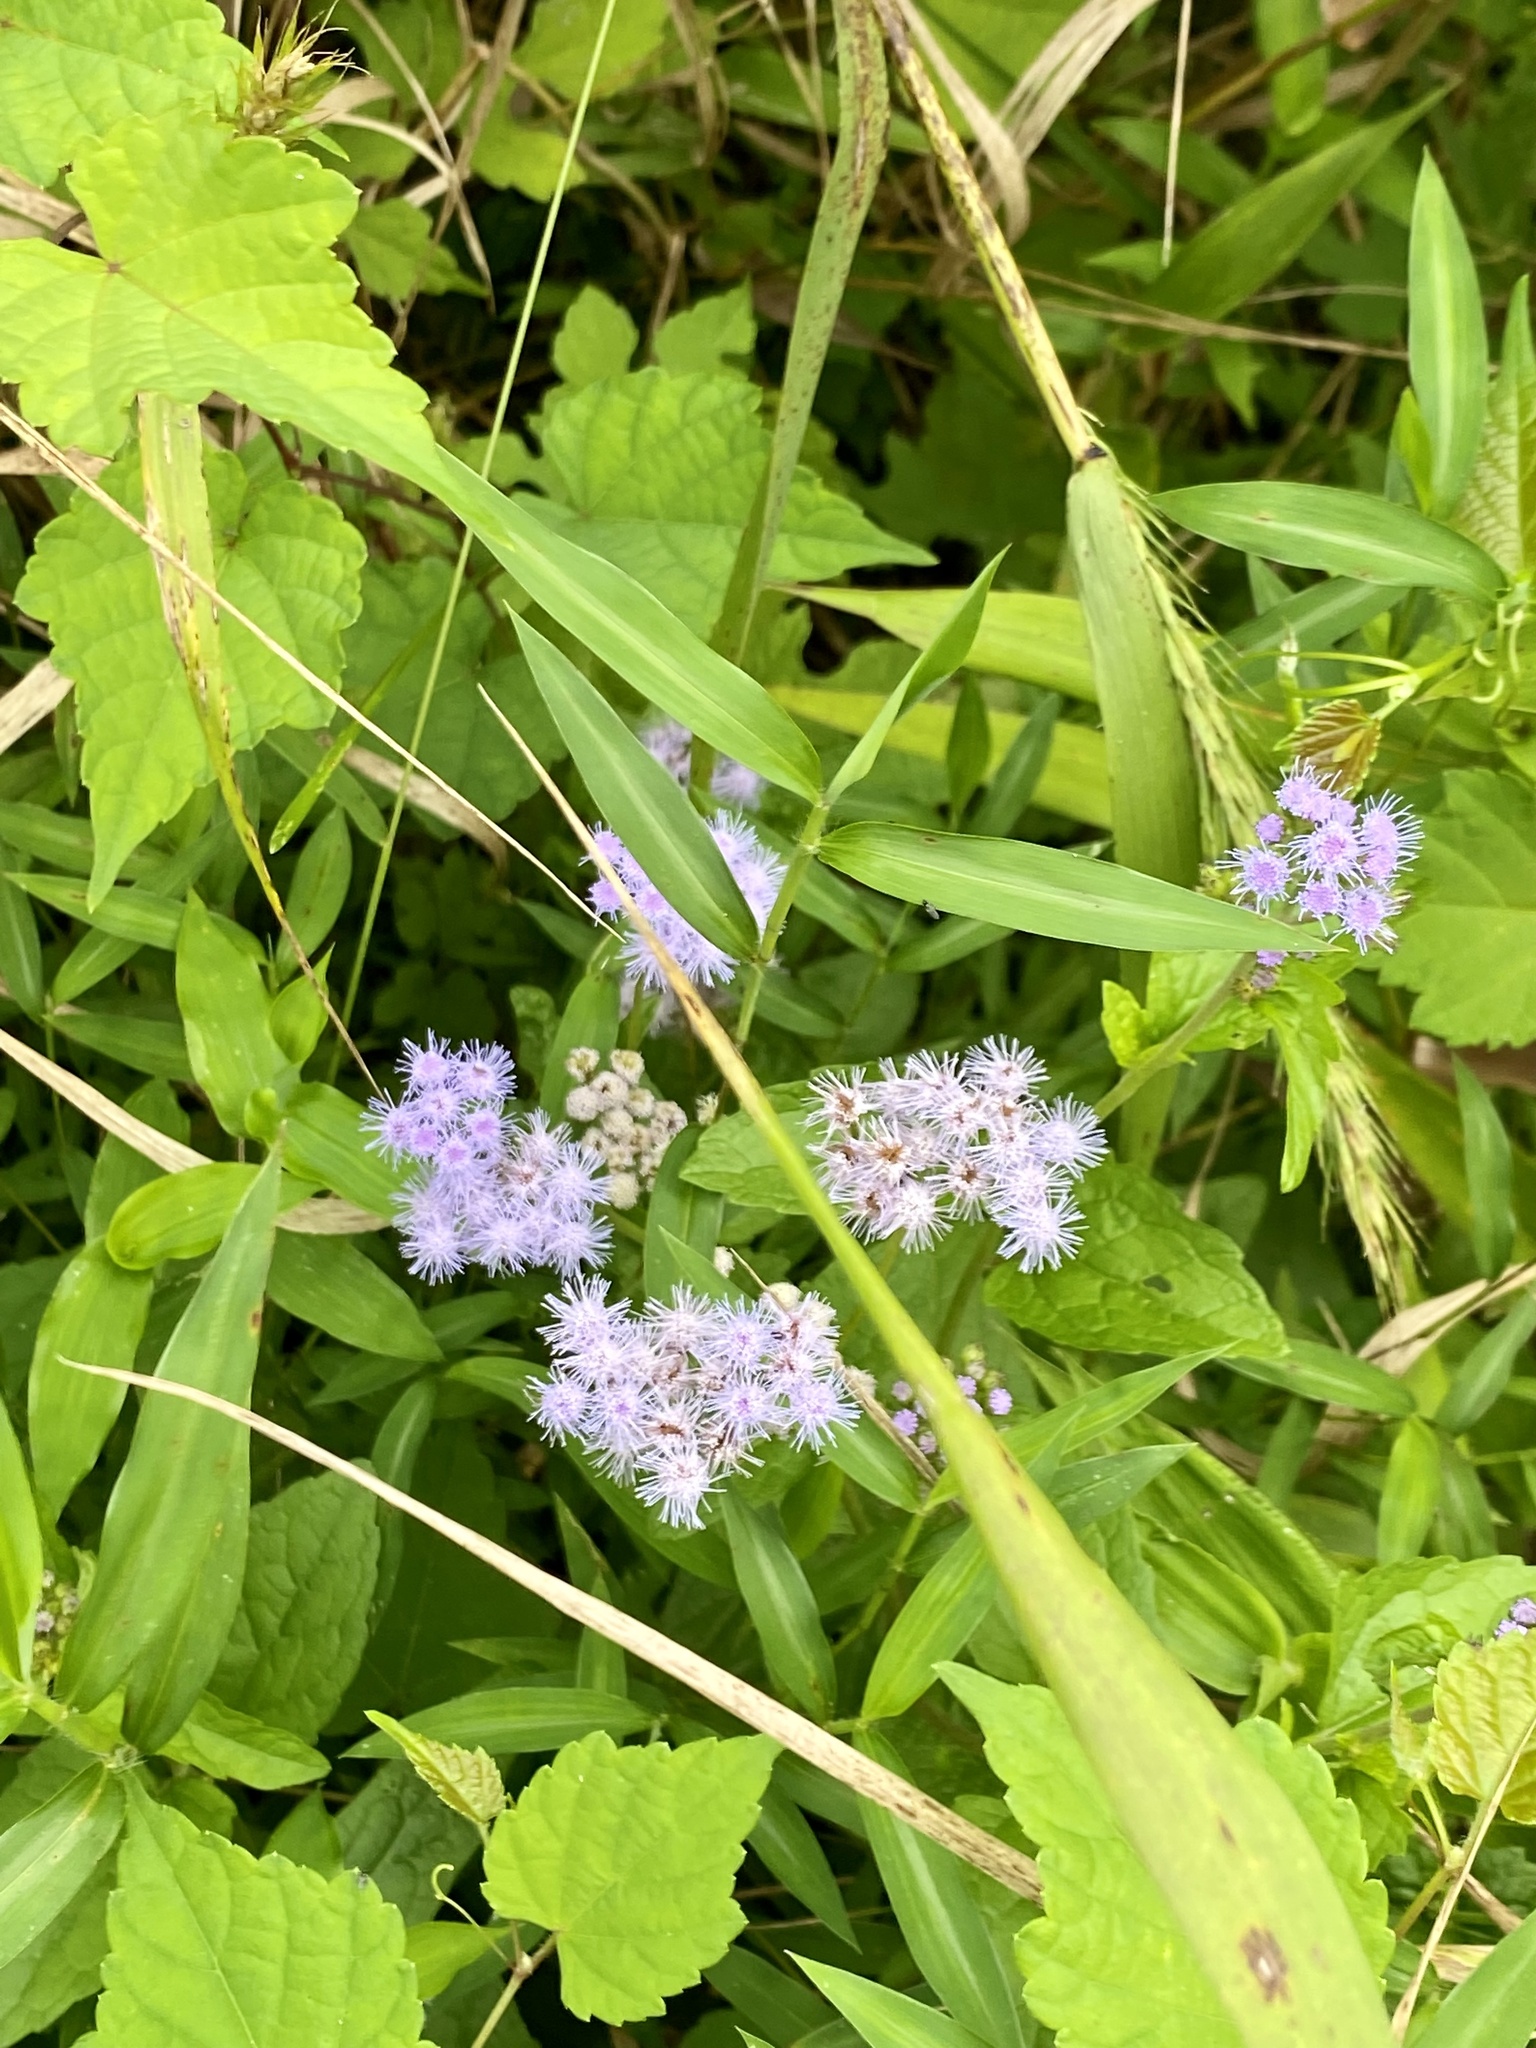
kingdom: Plantae
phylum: Tracheophyta
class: Magnoliopsida
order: Asterales
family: Asteraceae
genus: Conoclinium
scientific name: Conoclinium coelestinum
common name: Blue mistflower
